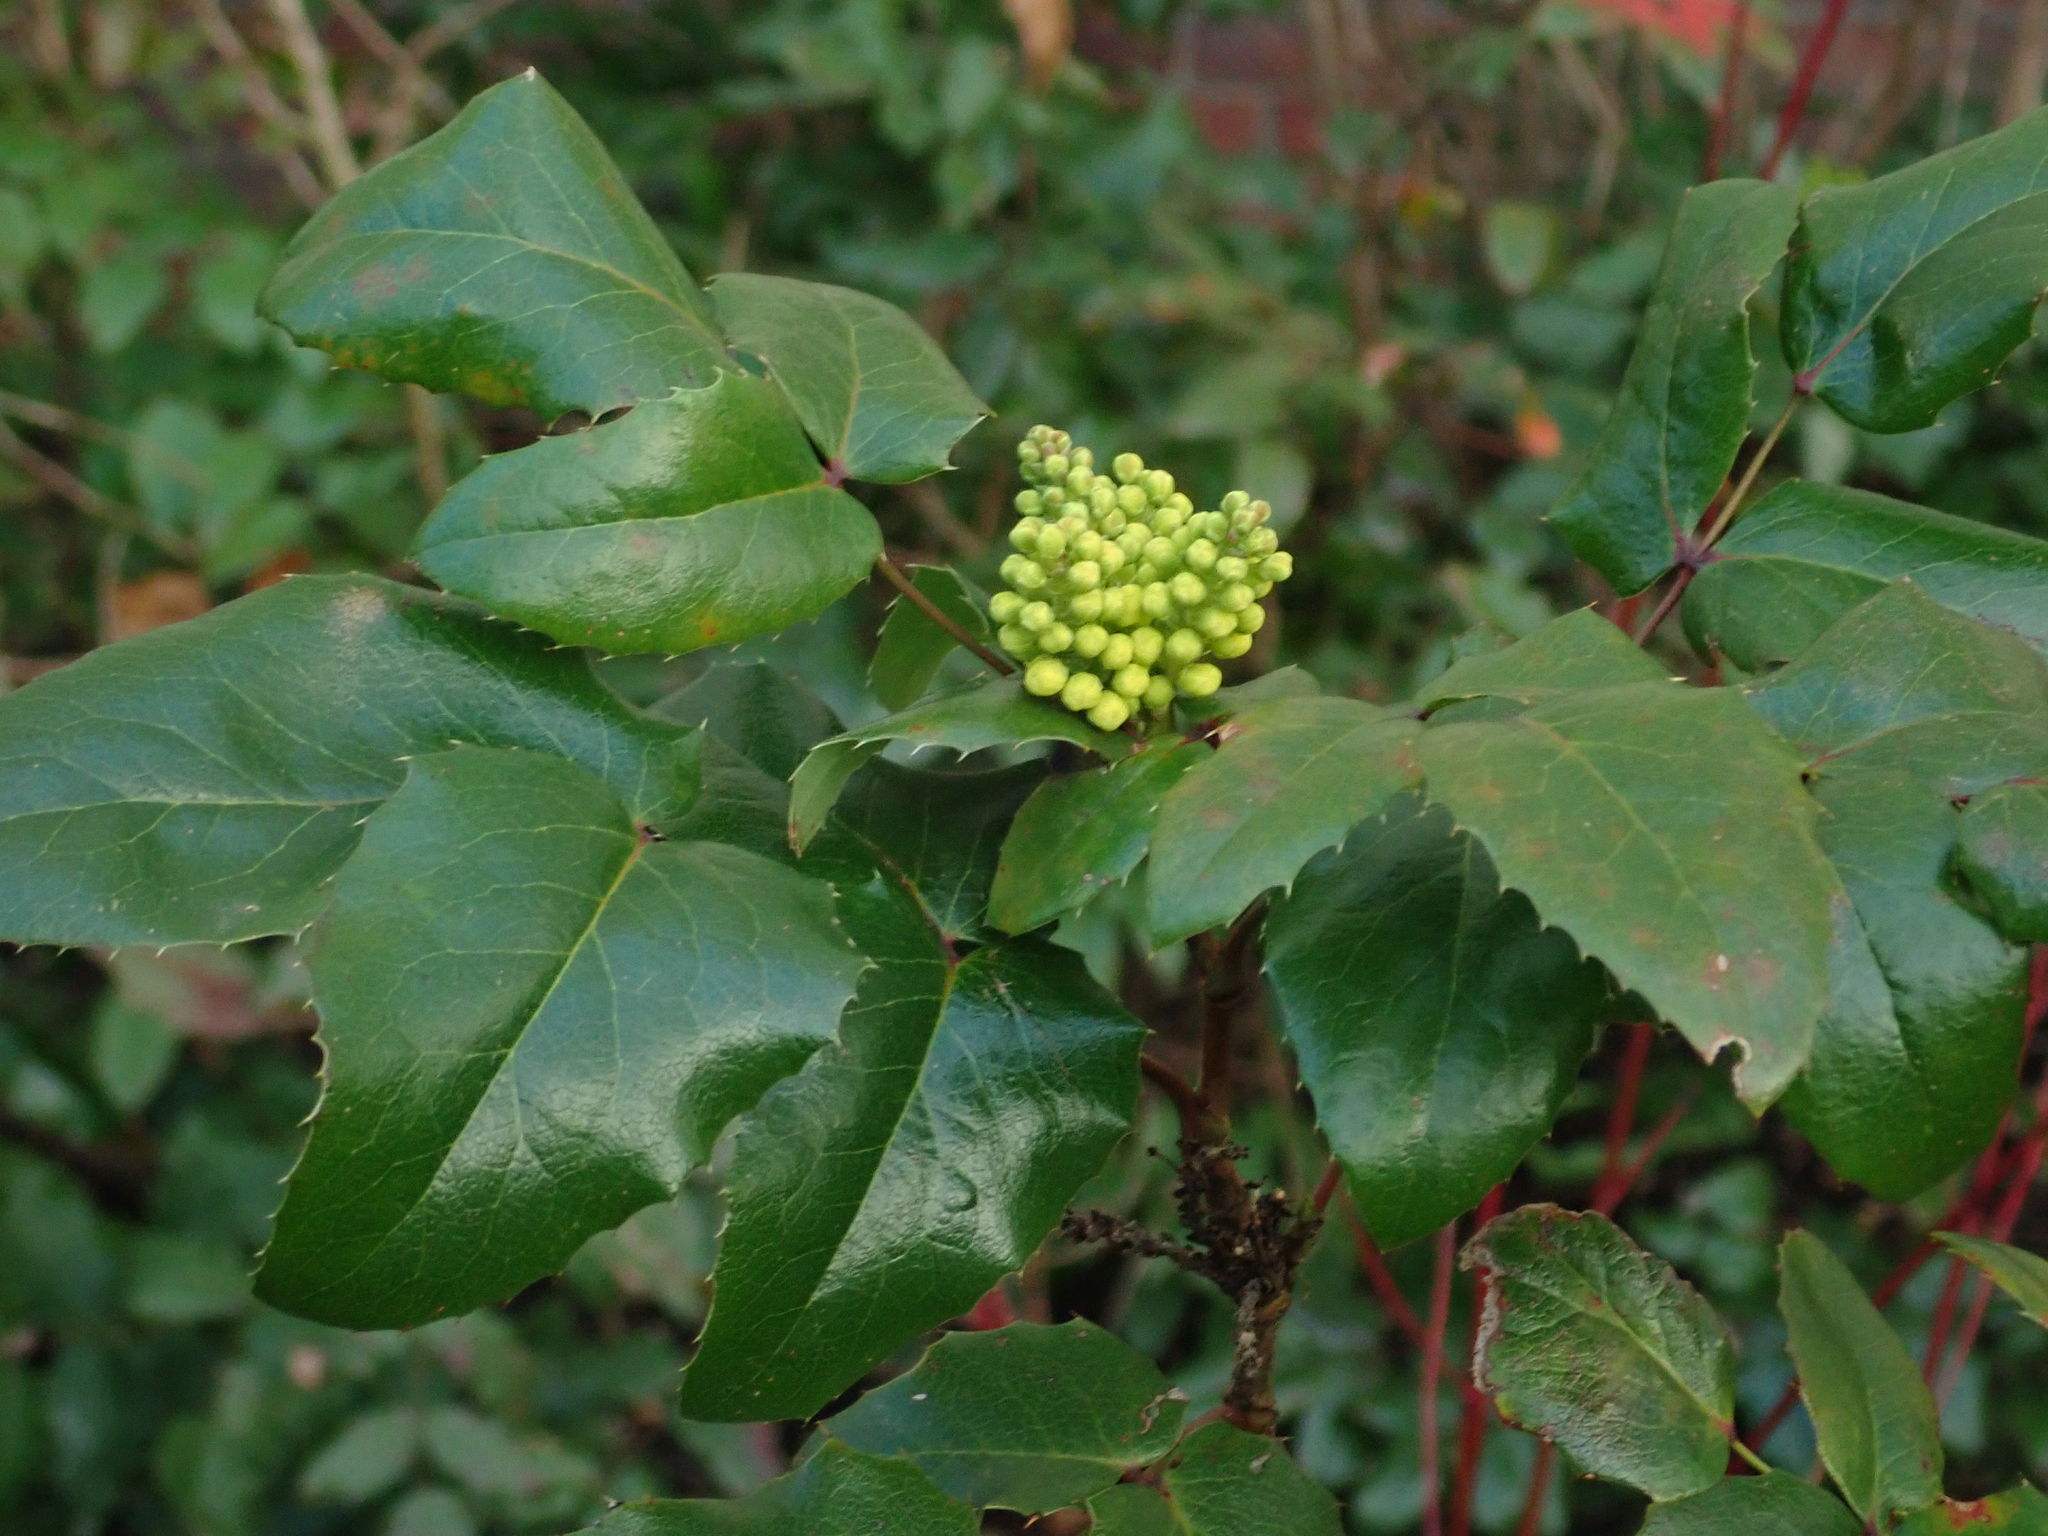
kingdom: Plantae
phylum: Tracheophyta
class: Magnoliopsida
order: Ranunculales
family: Berberidaceae
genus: Mahonia
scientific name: Mahonia aquifolium
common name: Oregon-grape
